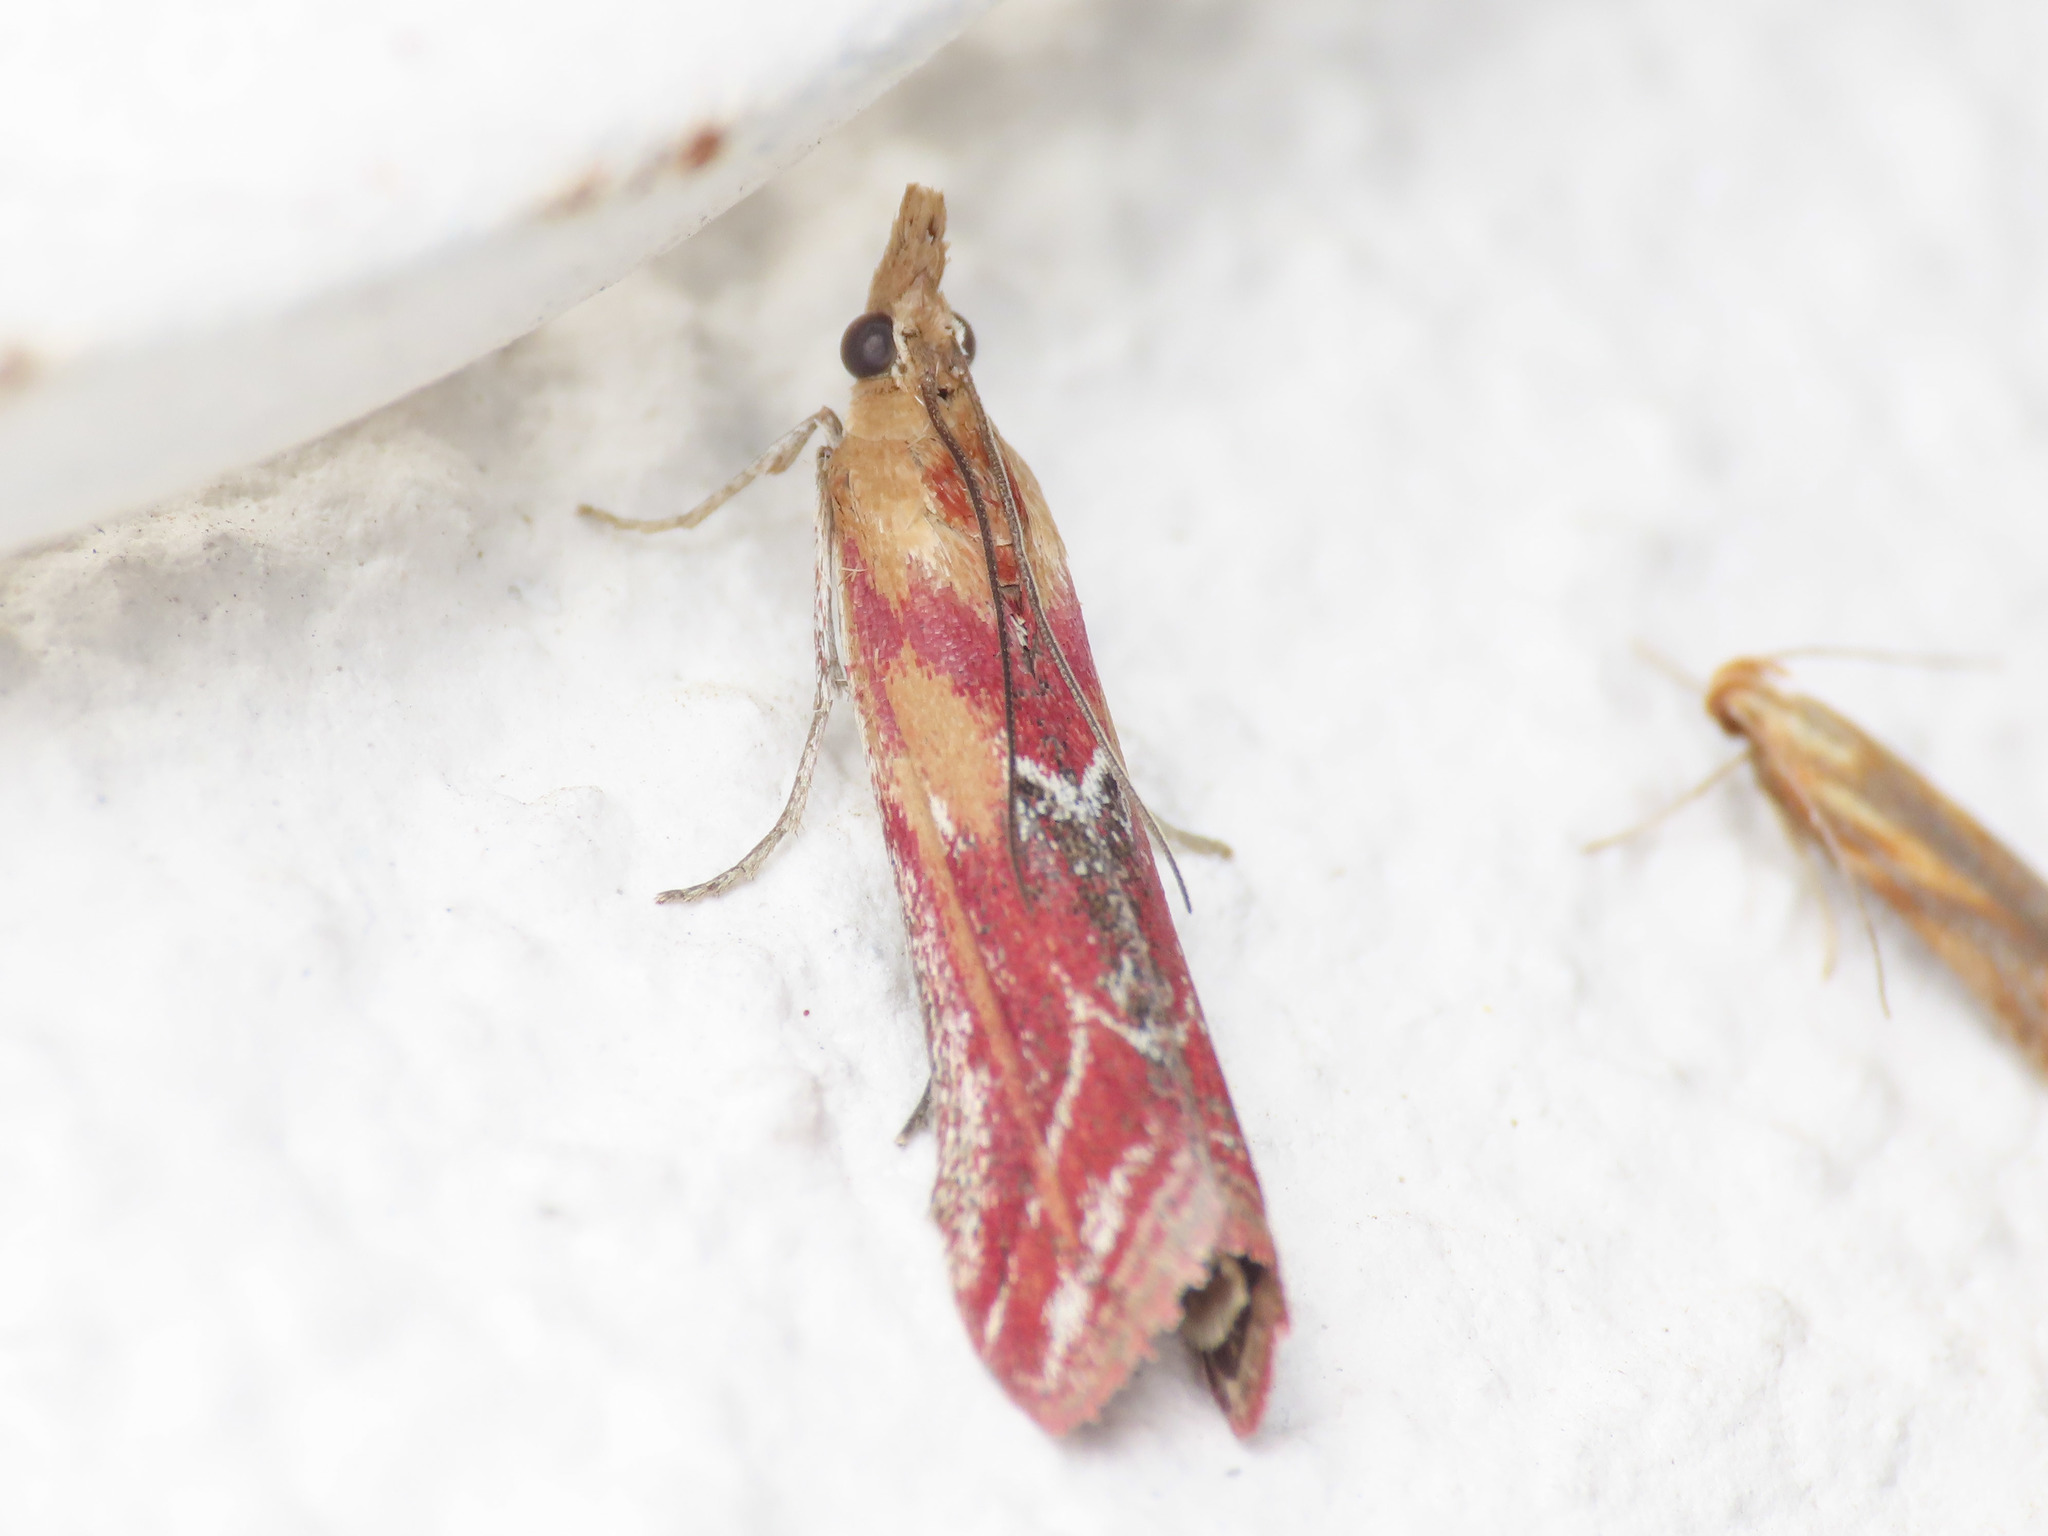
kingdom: Animalia
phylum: Arthropoda
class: Insecta
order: Lepidoptera
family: Pyralidae
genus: Ancylosis
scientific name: Ancylosis cinnamomella
